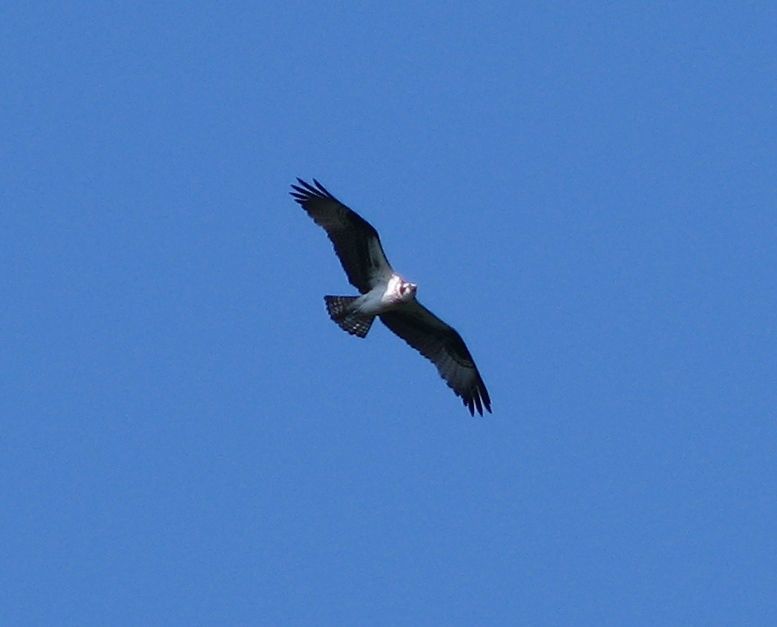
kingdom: Animalia
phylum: Chordata
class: Aves
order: Accipitriformes
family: Pandionidae
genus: Pandion
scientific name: Pandion haliaetus
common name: Osprey
